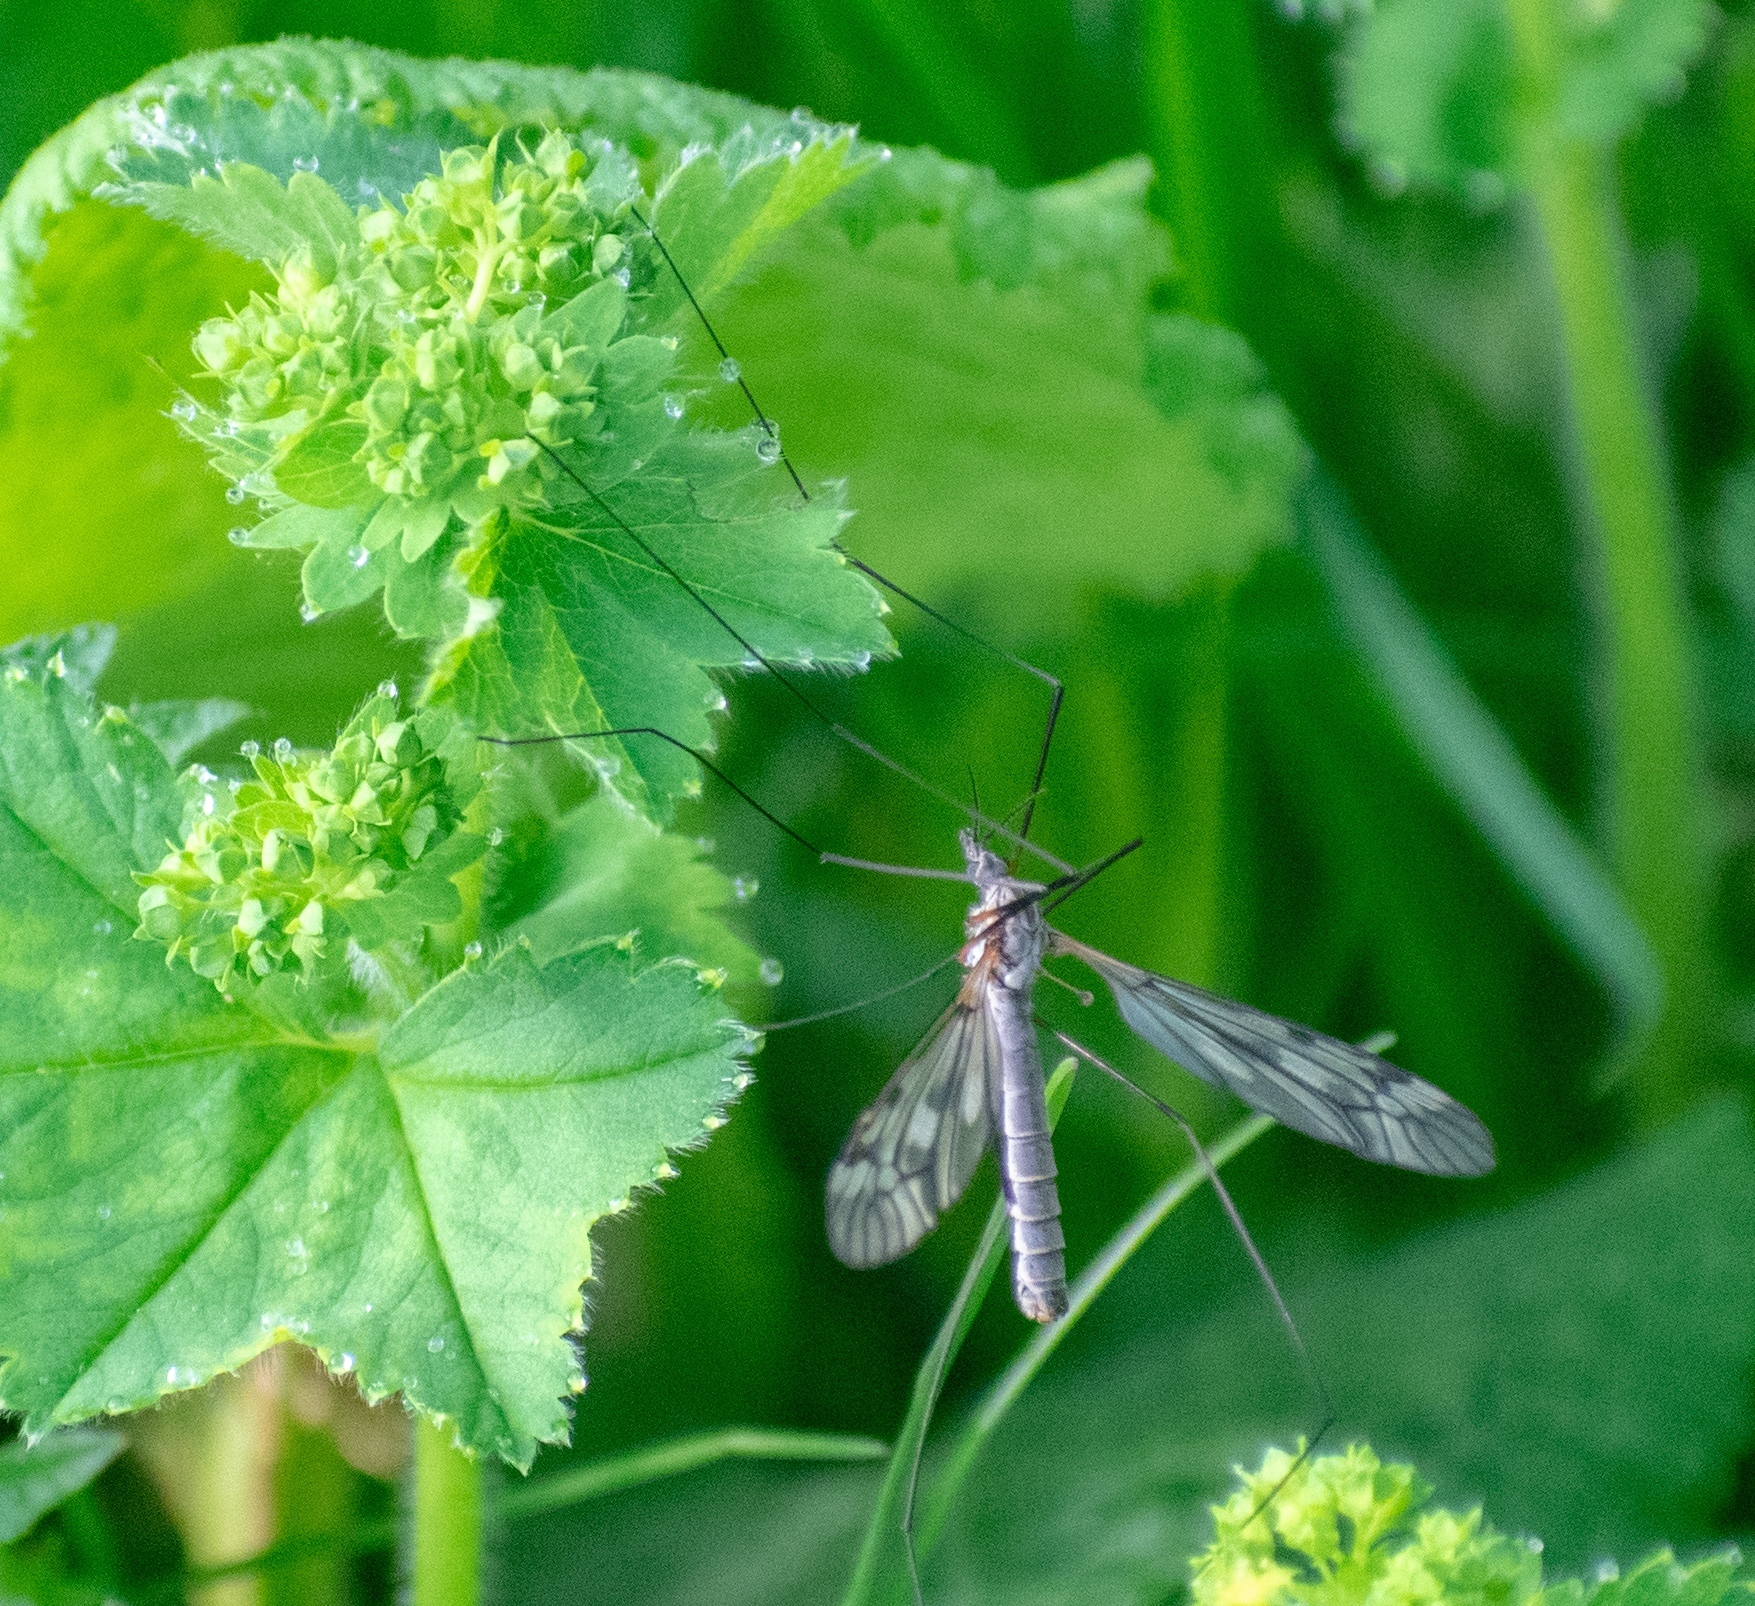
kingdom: Animalia
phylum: Arthropoda
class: Insecta
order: Diptera
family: Tipulidae
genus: Tipula
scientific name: Tipula paludosa
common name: European cranefly
